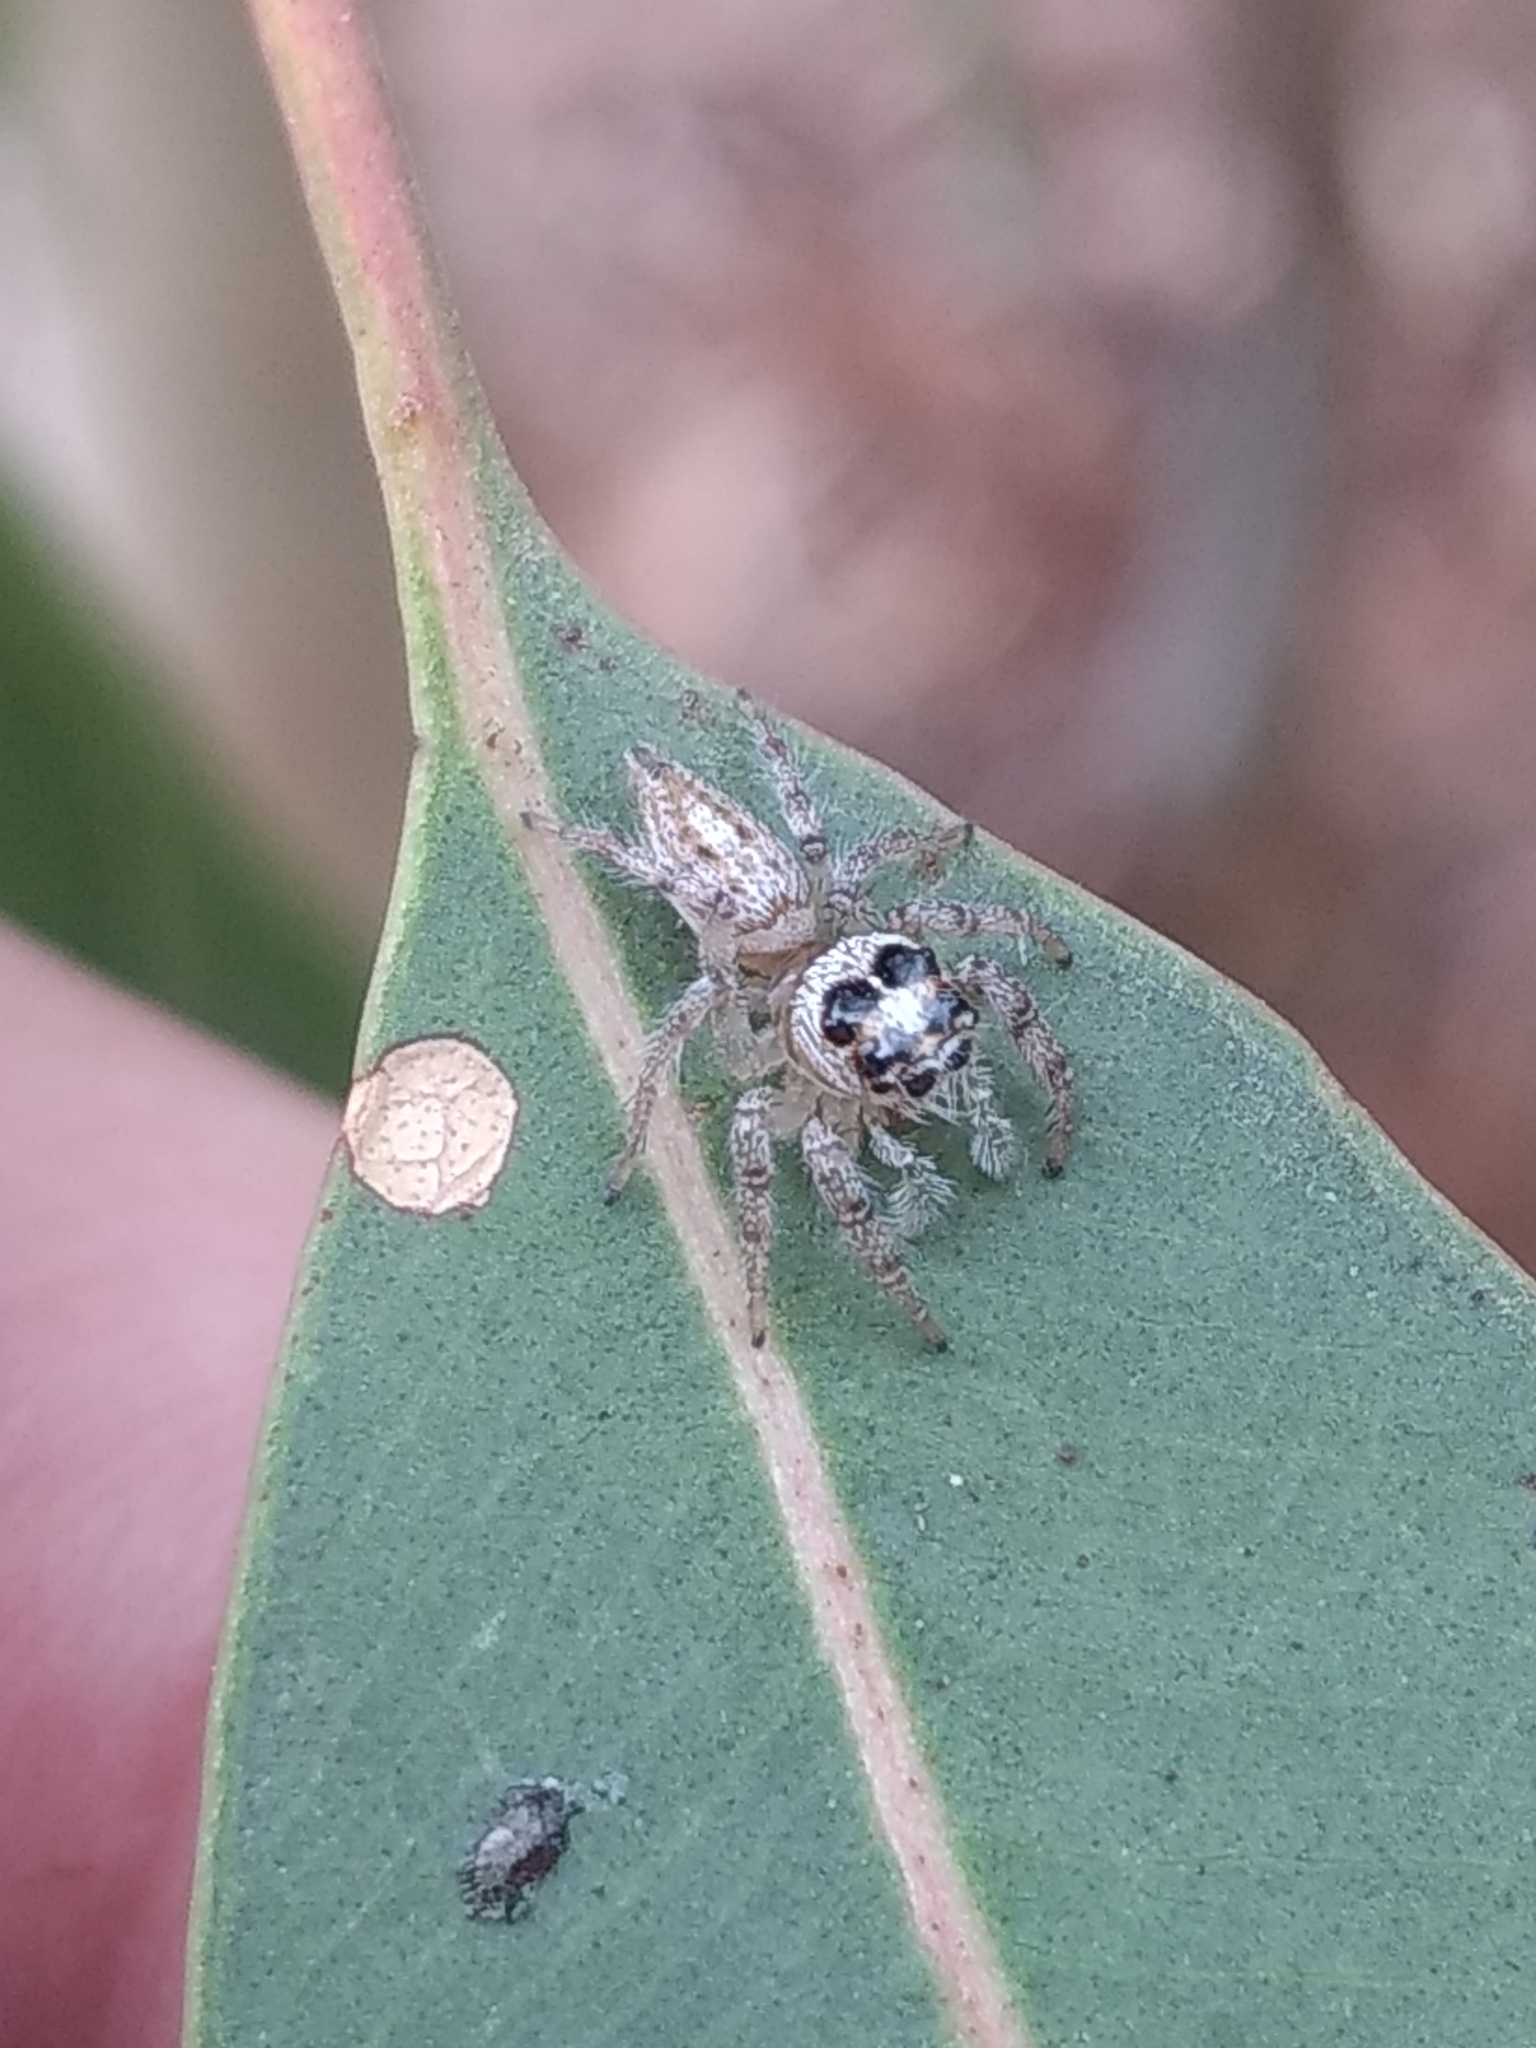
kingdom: Animalia
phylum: Arthropoda
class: Arachnida
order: Araneae
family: Salticidae
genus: Colonus
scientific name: Colonus hesperus
